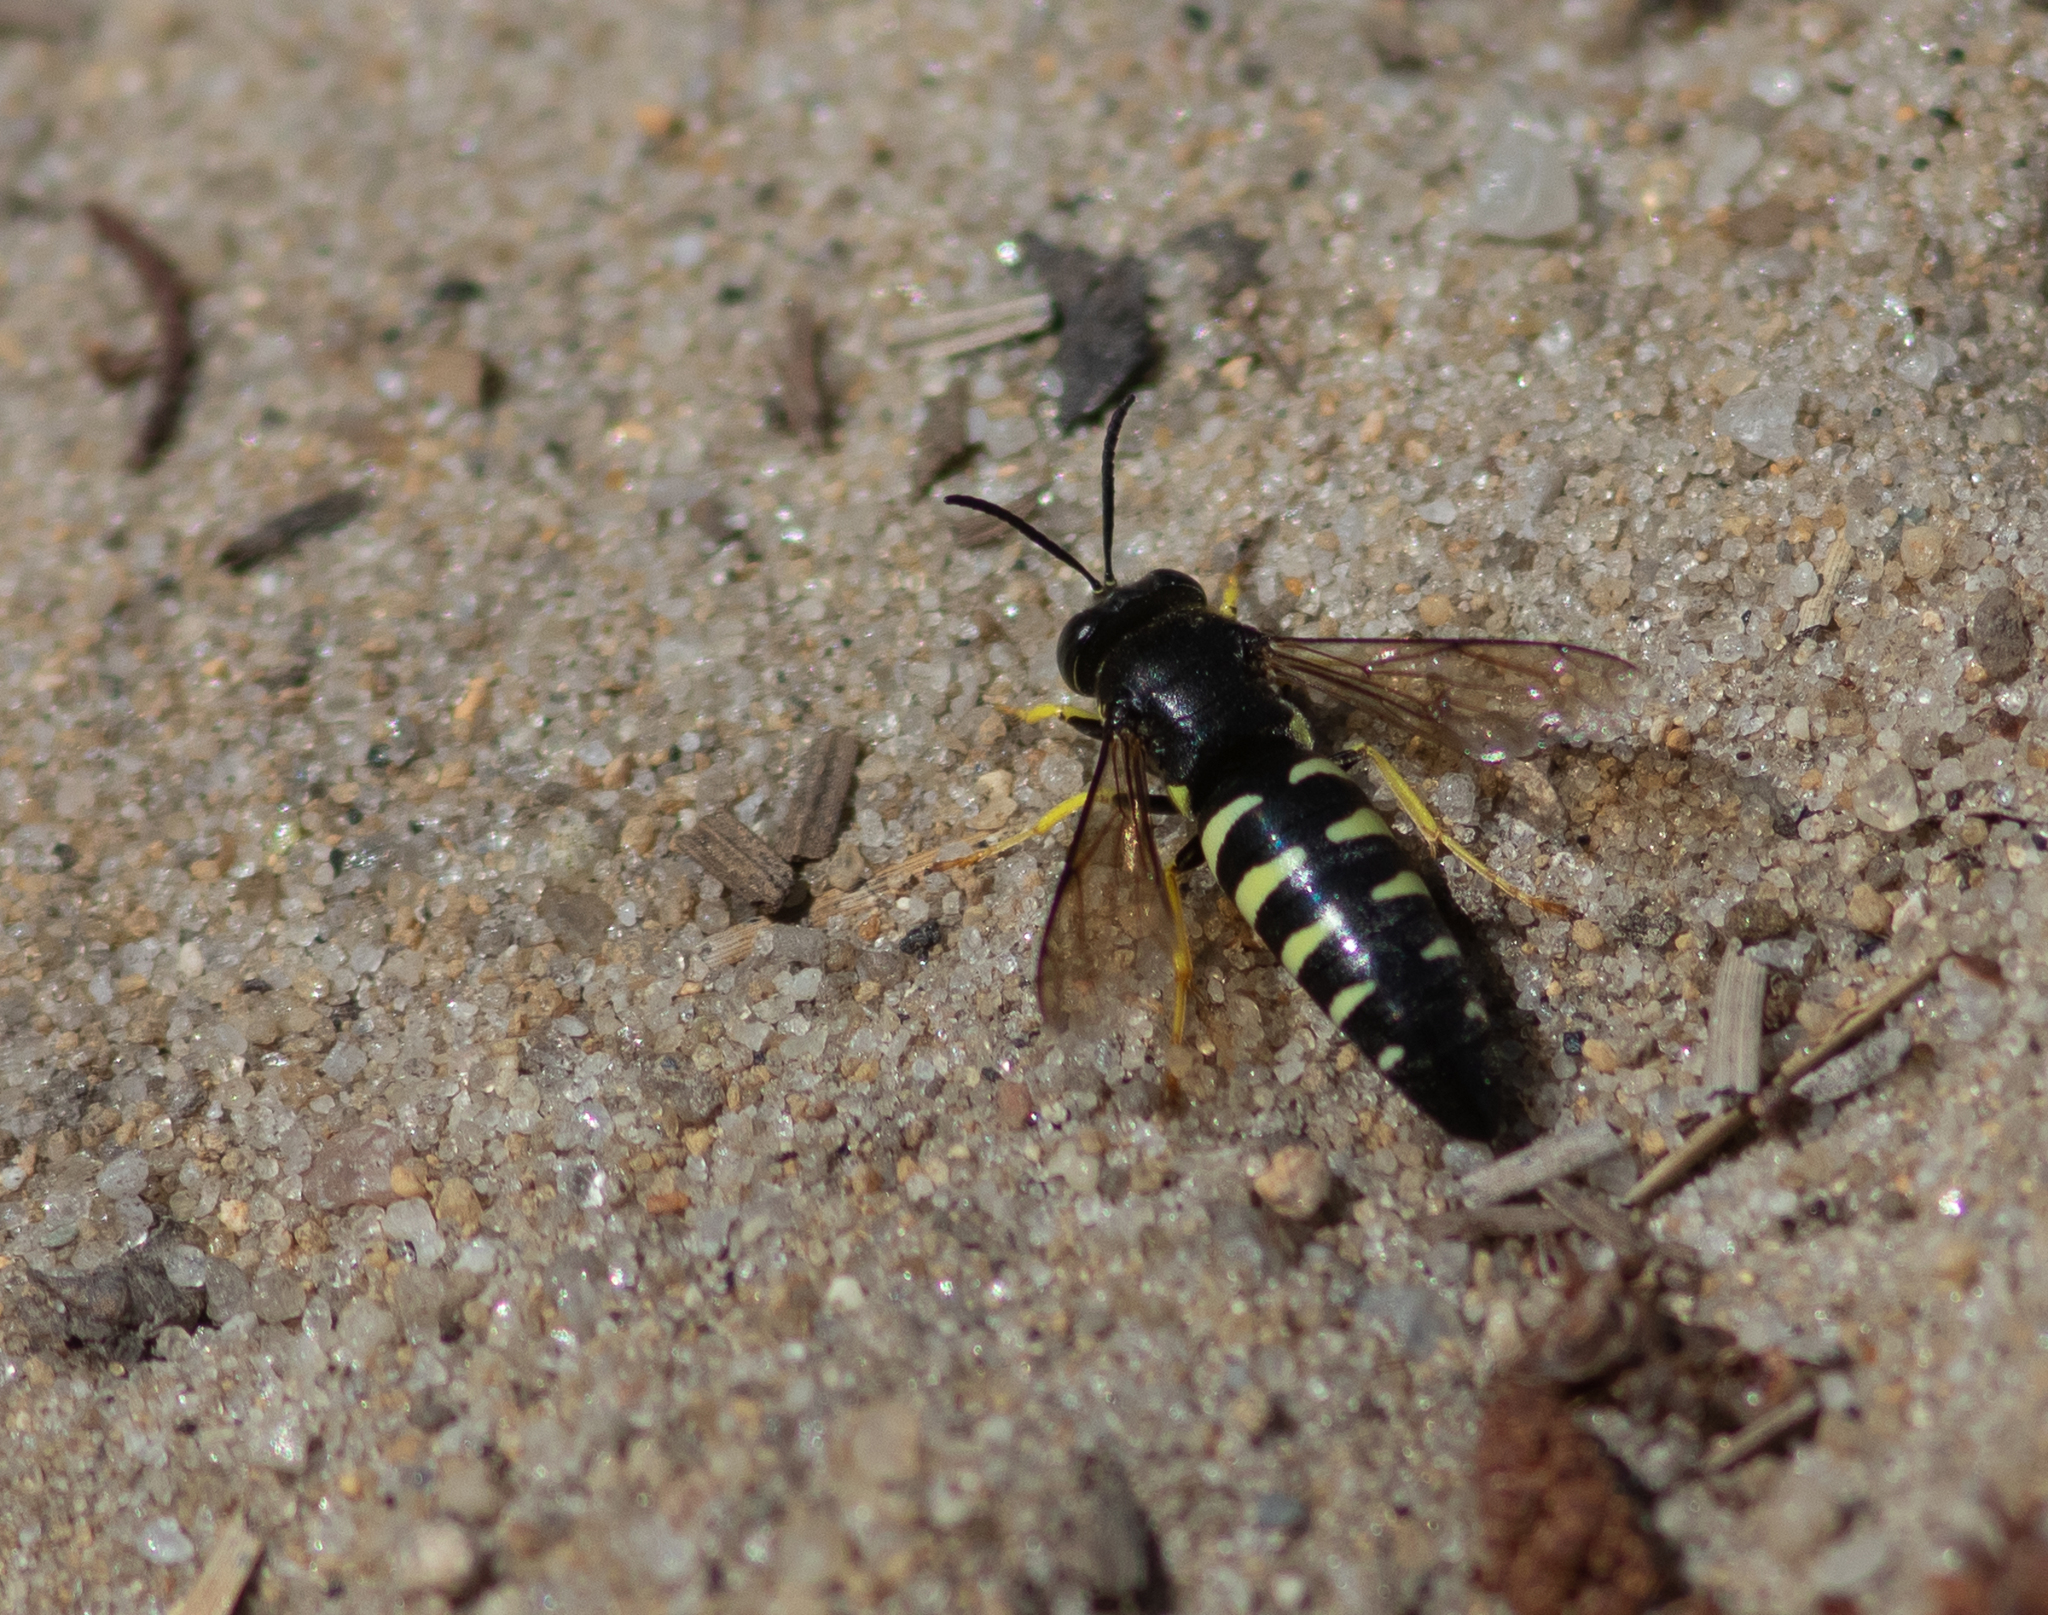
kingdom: Animalia
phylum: Arthropoda
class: Insecta
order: Hymenoptera
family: Crabronidae
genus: Bicyrtes
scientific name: Bicyrtes quadrifasciatus
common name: Four-banded stink bug hunter wasp
